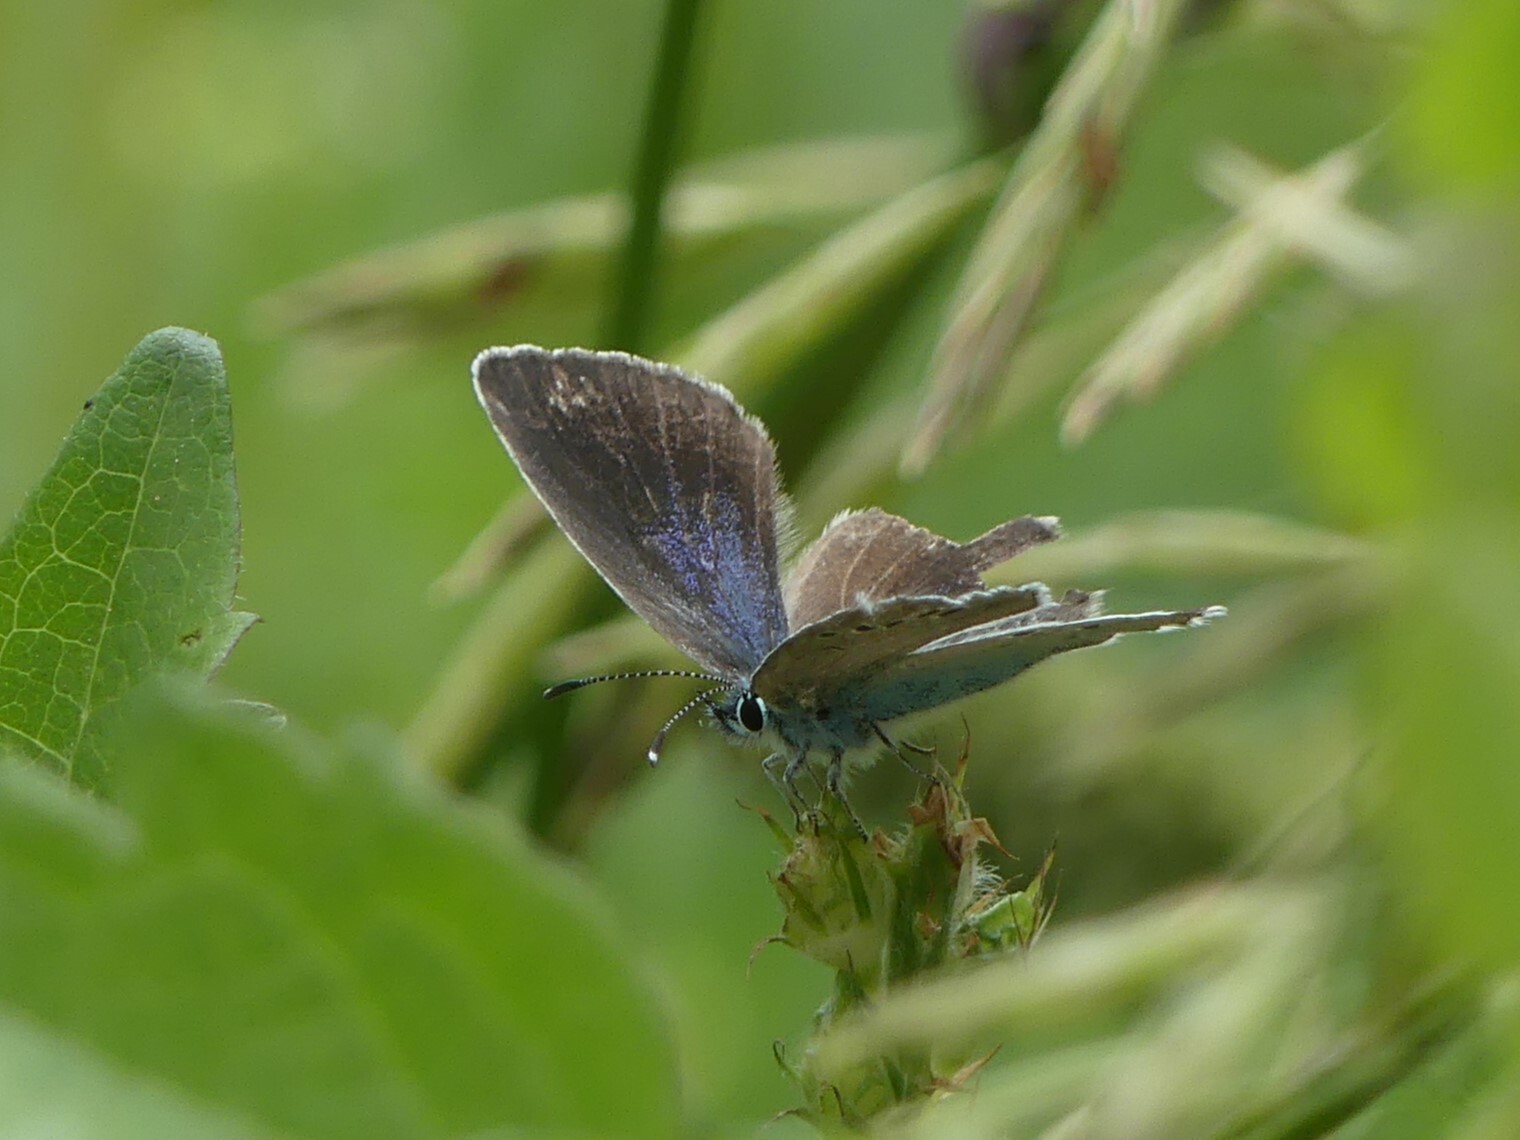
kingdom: Animalia
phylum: Arthropoda
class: Insecta
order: Lepidoptera
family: Lycaenidae
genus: Glaucopsyche
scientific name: Glaucopsyche alexis
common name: Green-underside blue
